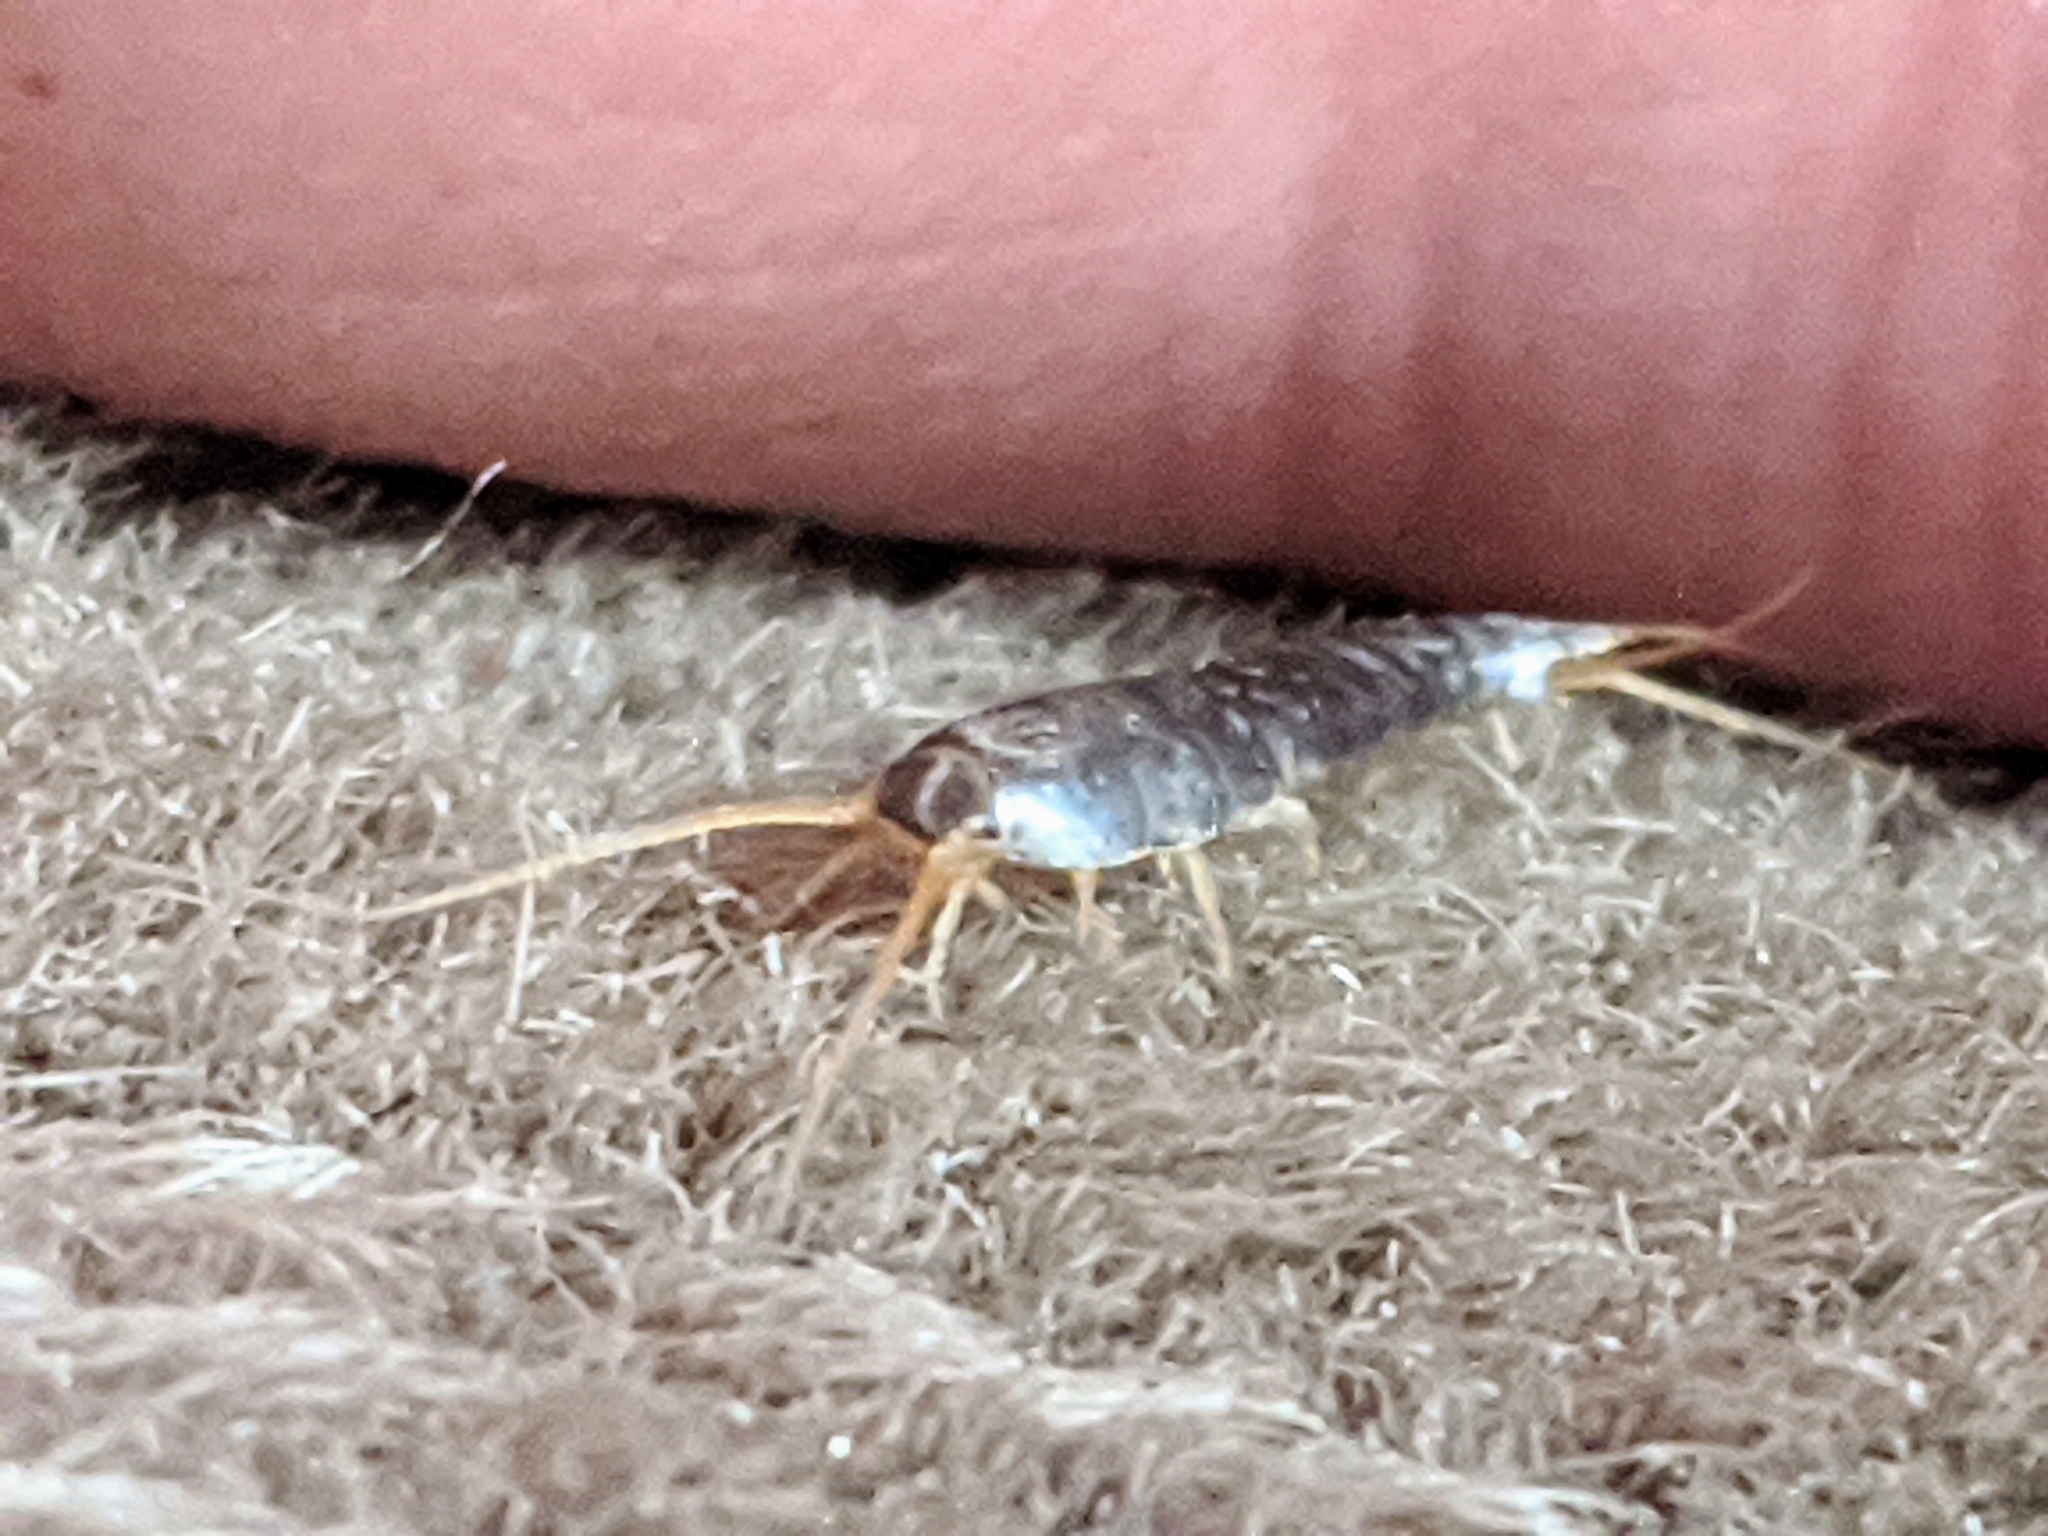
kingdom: Animalia
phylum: Arthropoda
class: Insecta
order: Zygentoma
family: Lepismatidae
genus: Lepisma
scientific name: Lepisma saccharinum
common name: Silverfish
